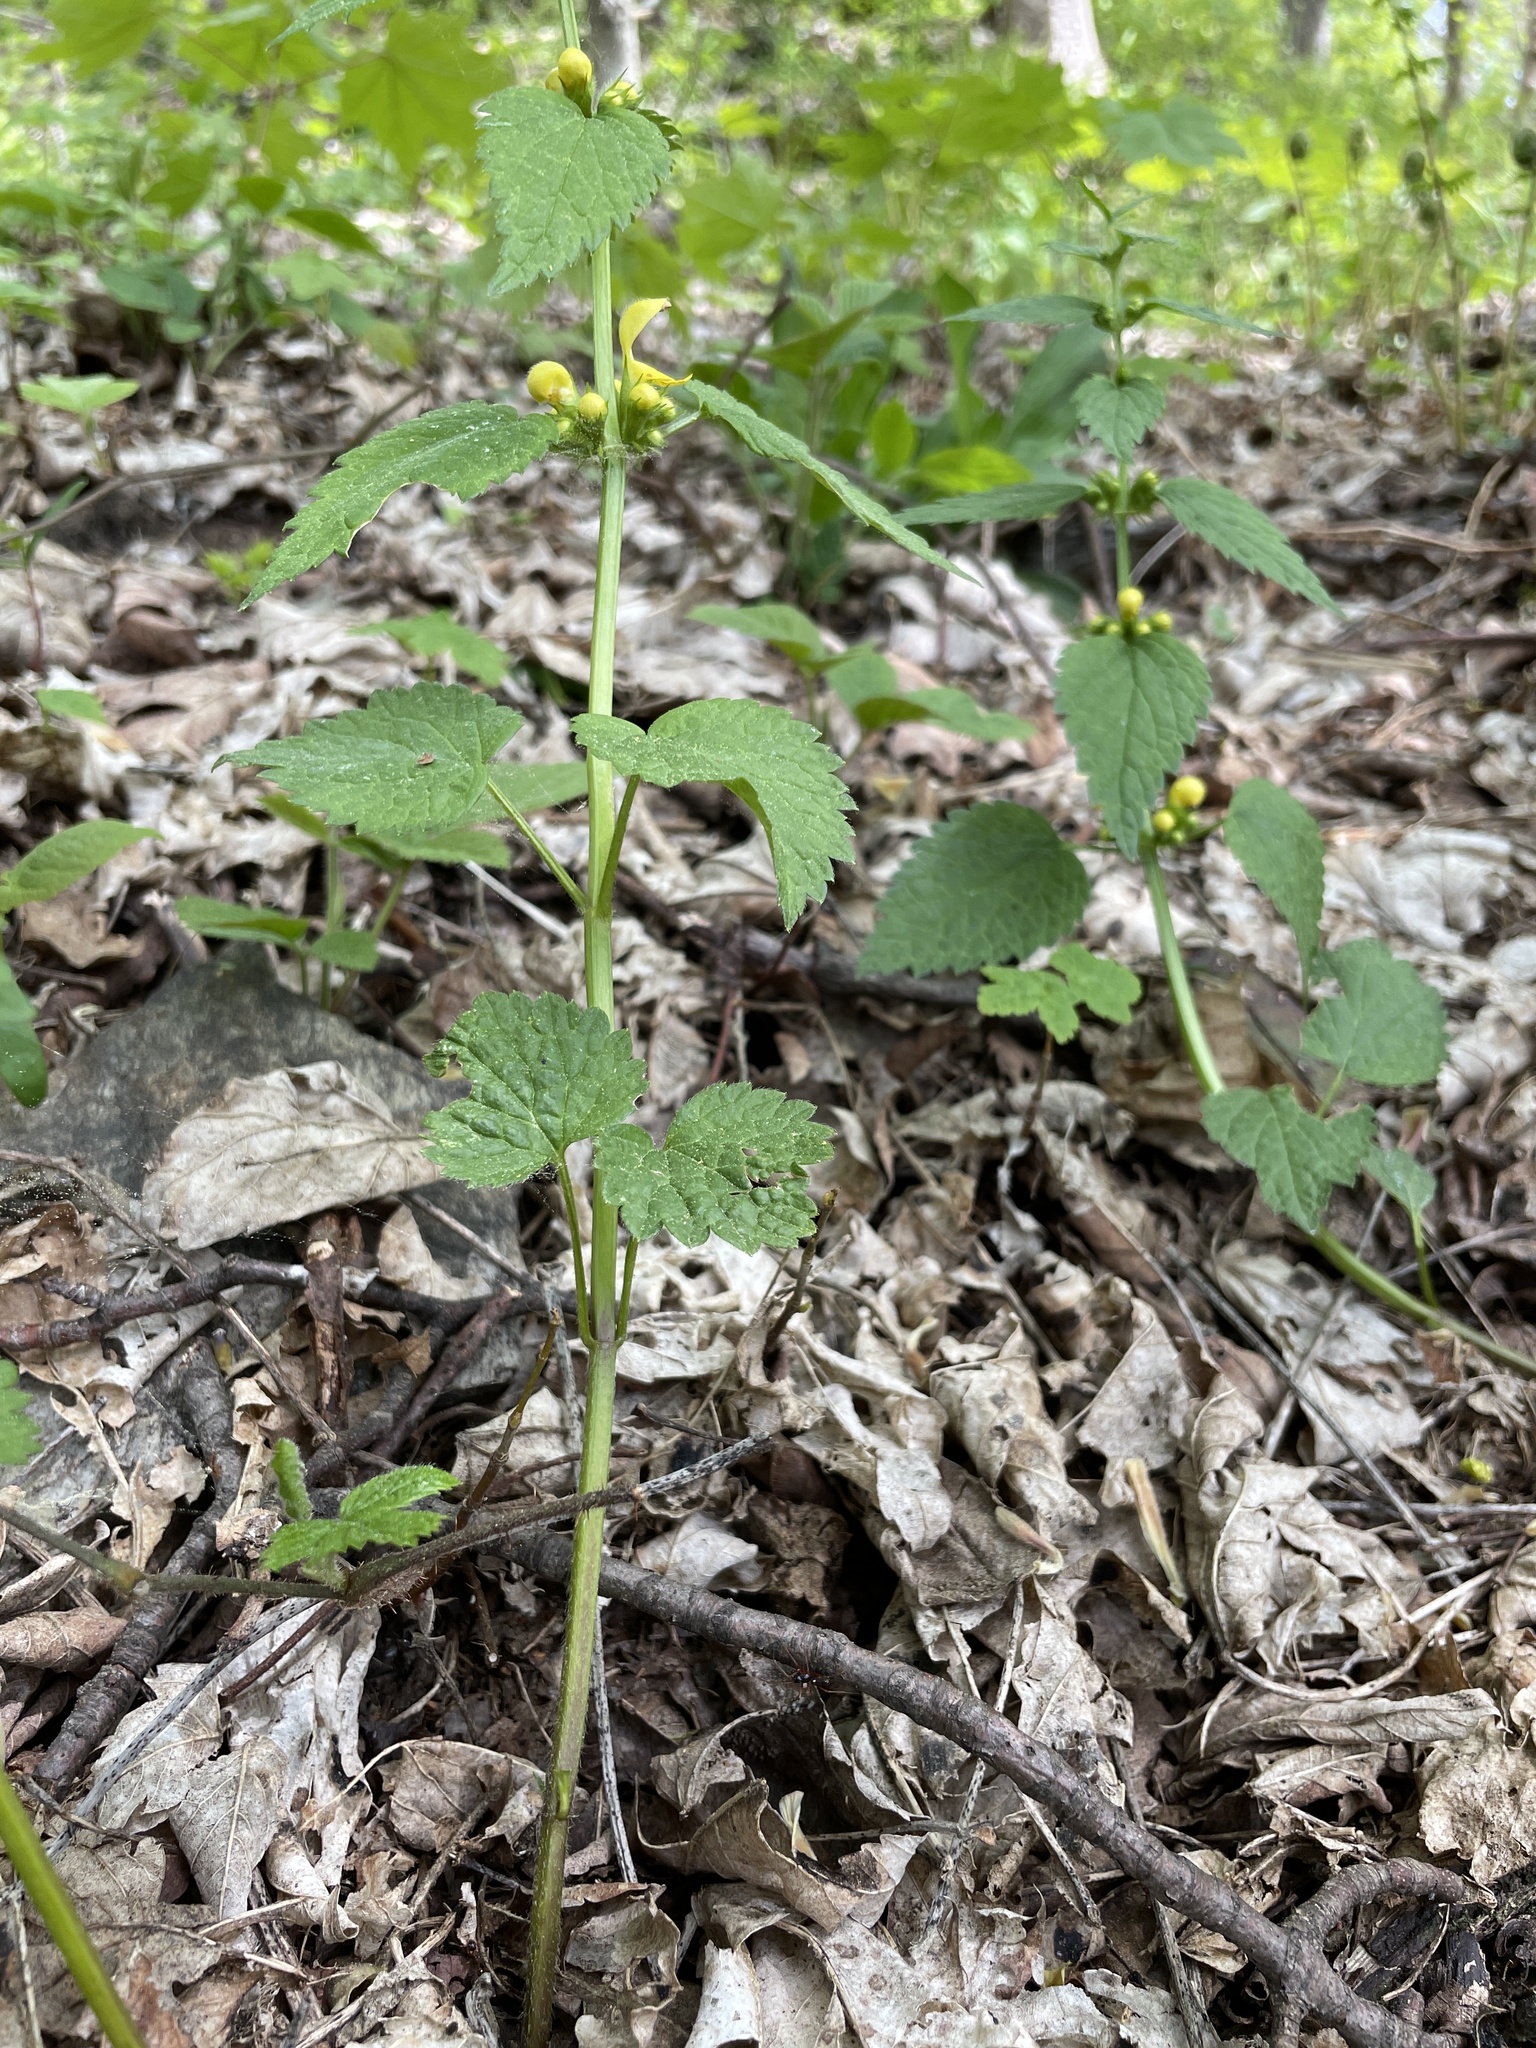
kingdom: Plantae
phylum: Tracheophyta
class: Magnoliopsida
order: Lamiales
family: Lamiaceae
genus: Lamium
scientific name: Lamium galeobdolon
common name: Yellow archangel
